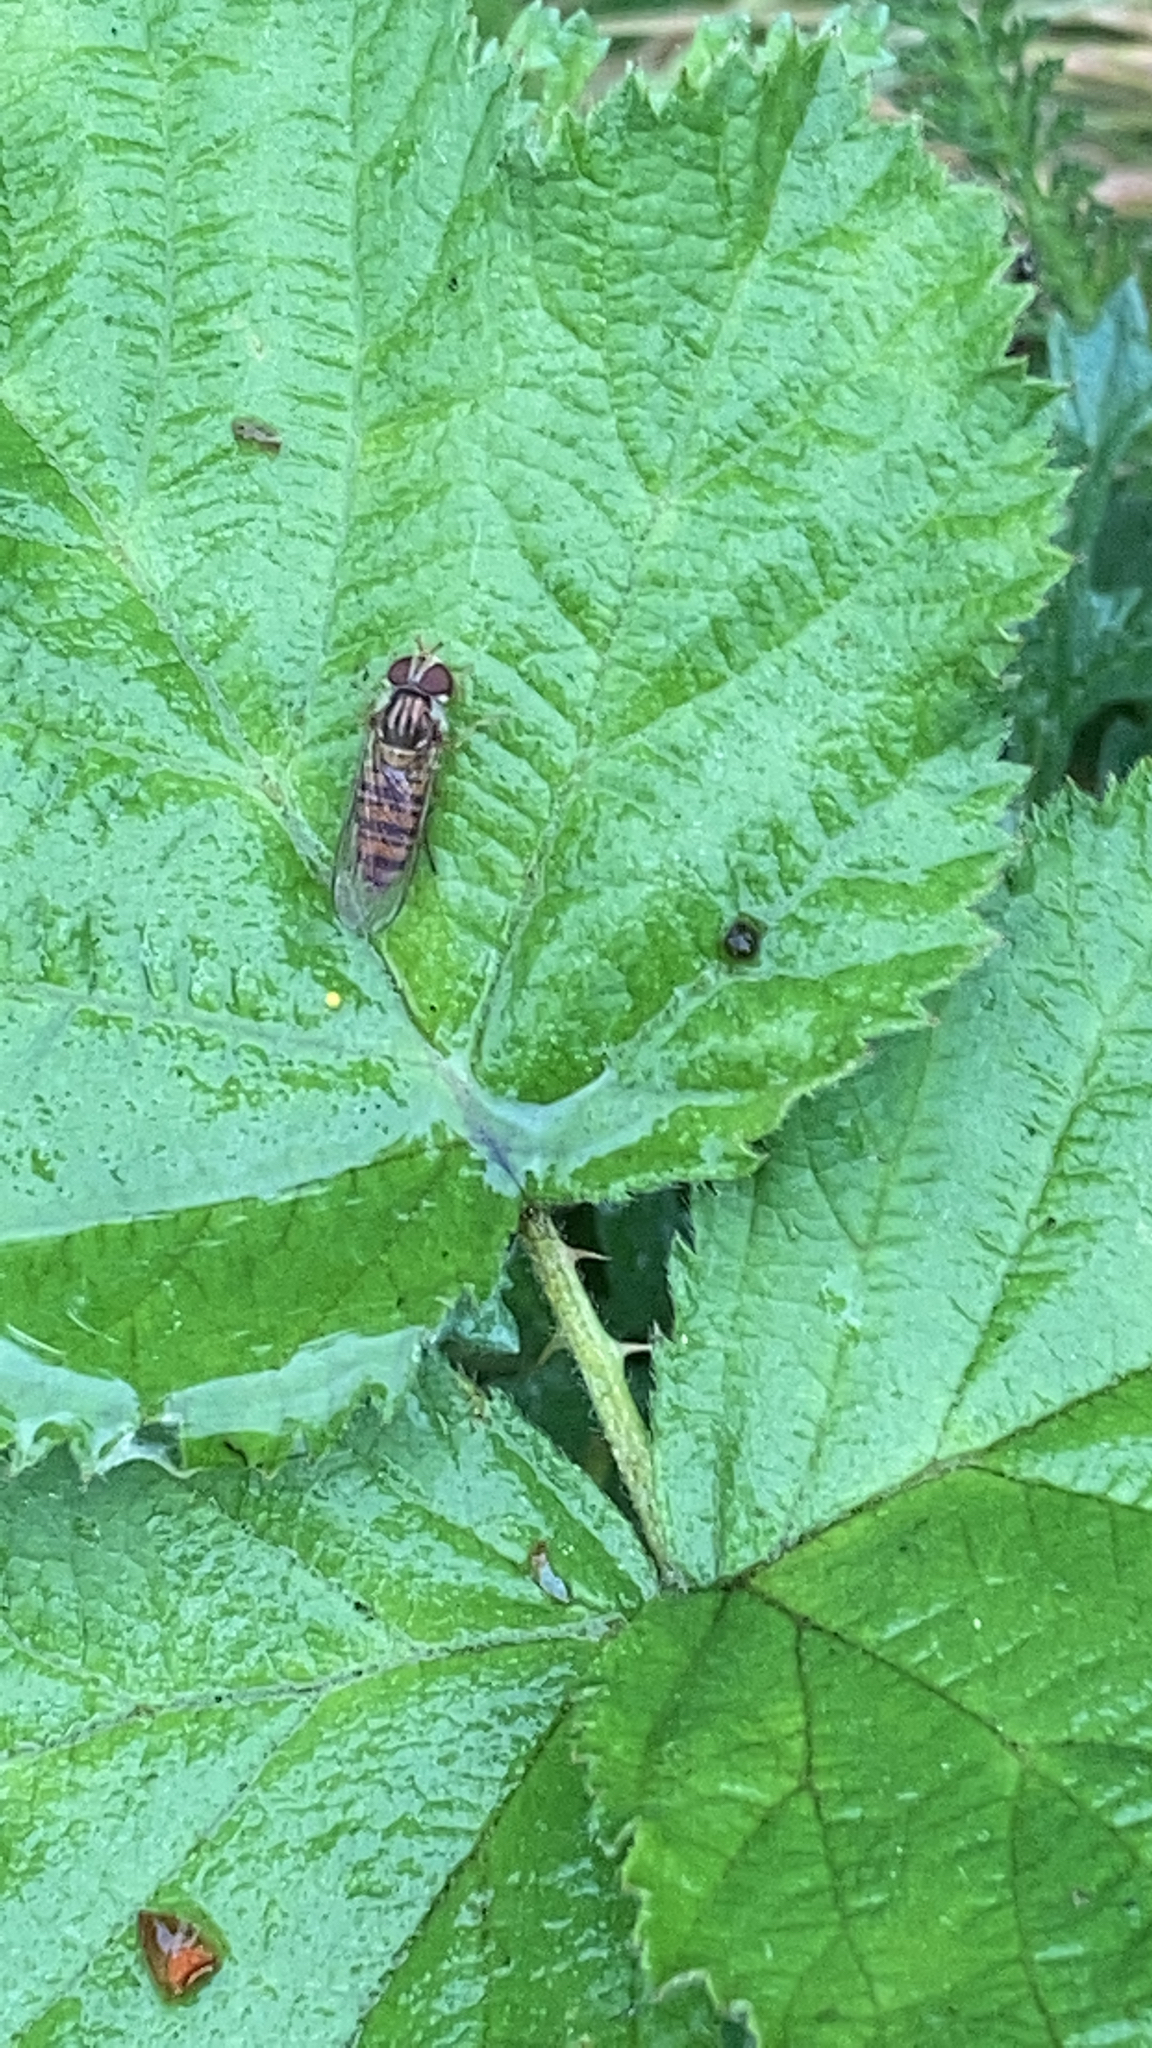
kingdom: Animalia
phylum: Arthropoda
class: Insecta
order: Diptera
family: Syrphidae
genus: Episyrphus
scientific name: Episyrphus balteatus
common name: Marmalade hoverfly
